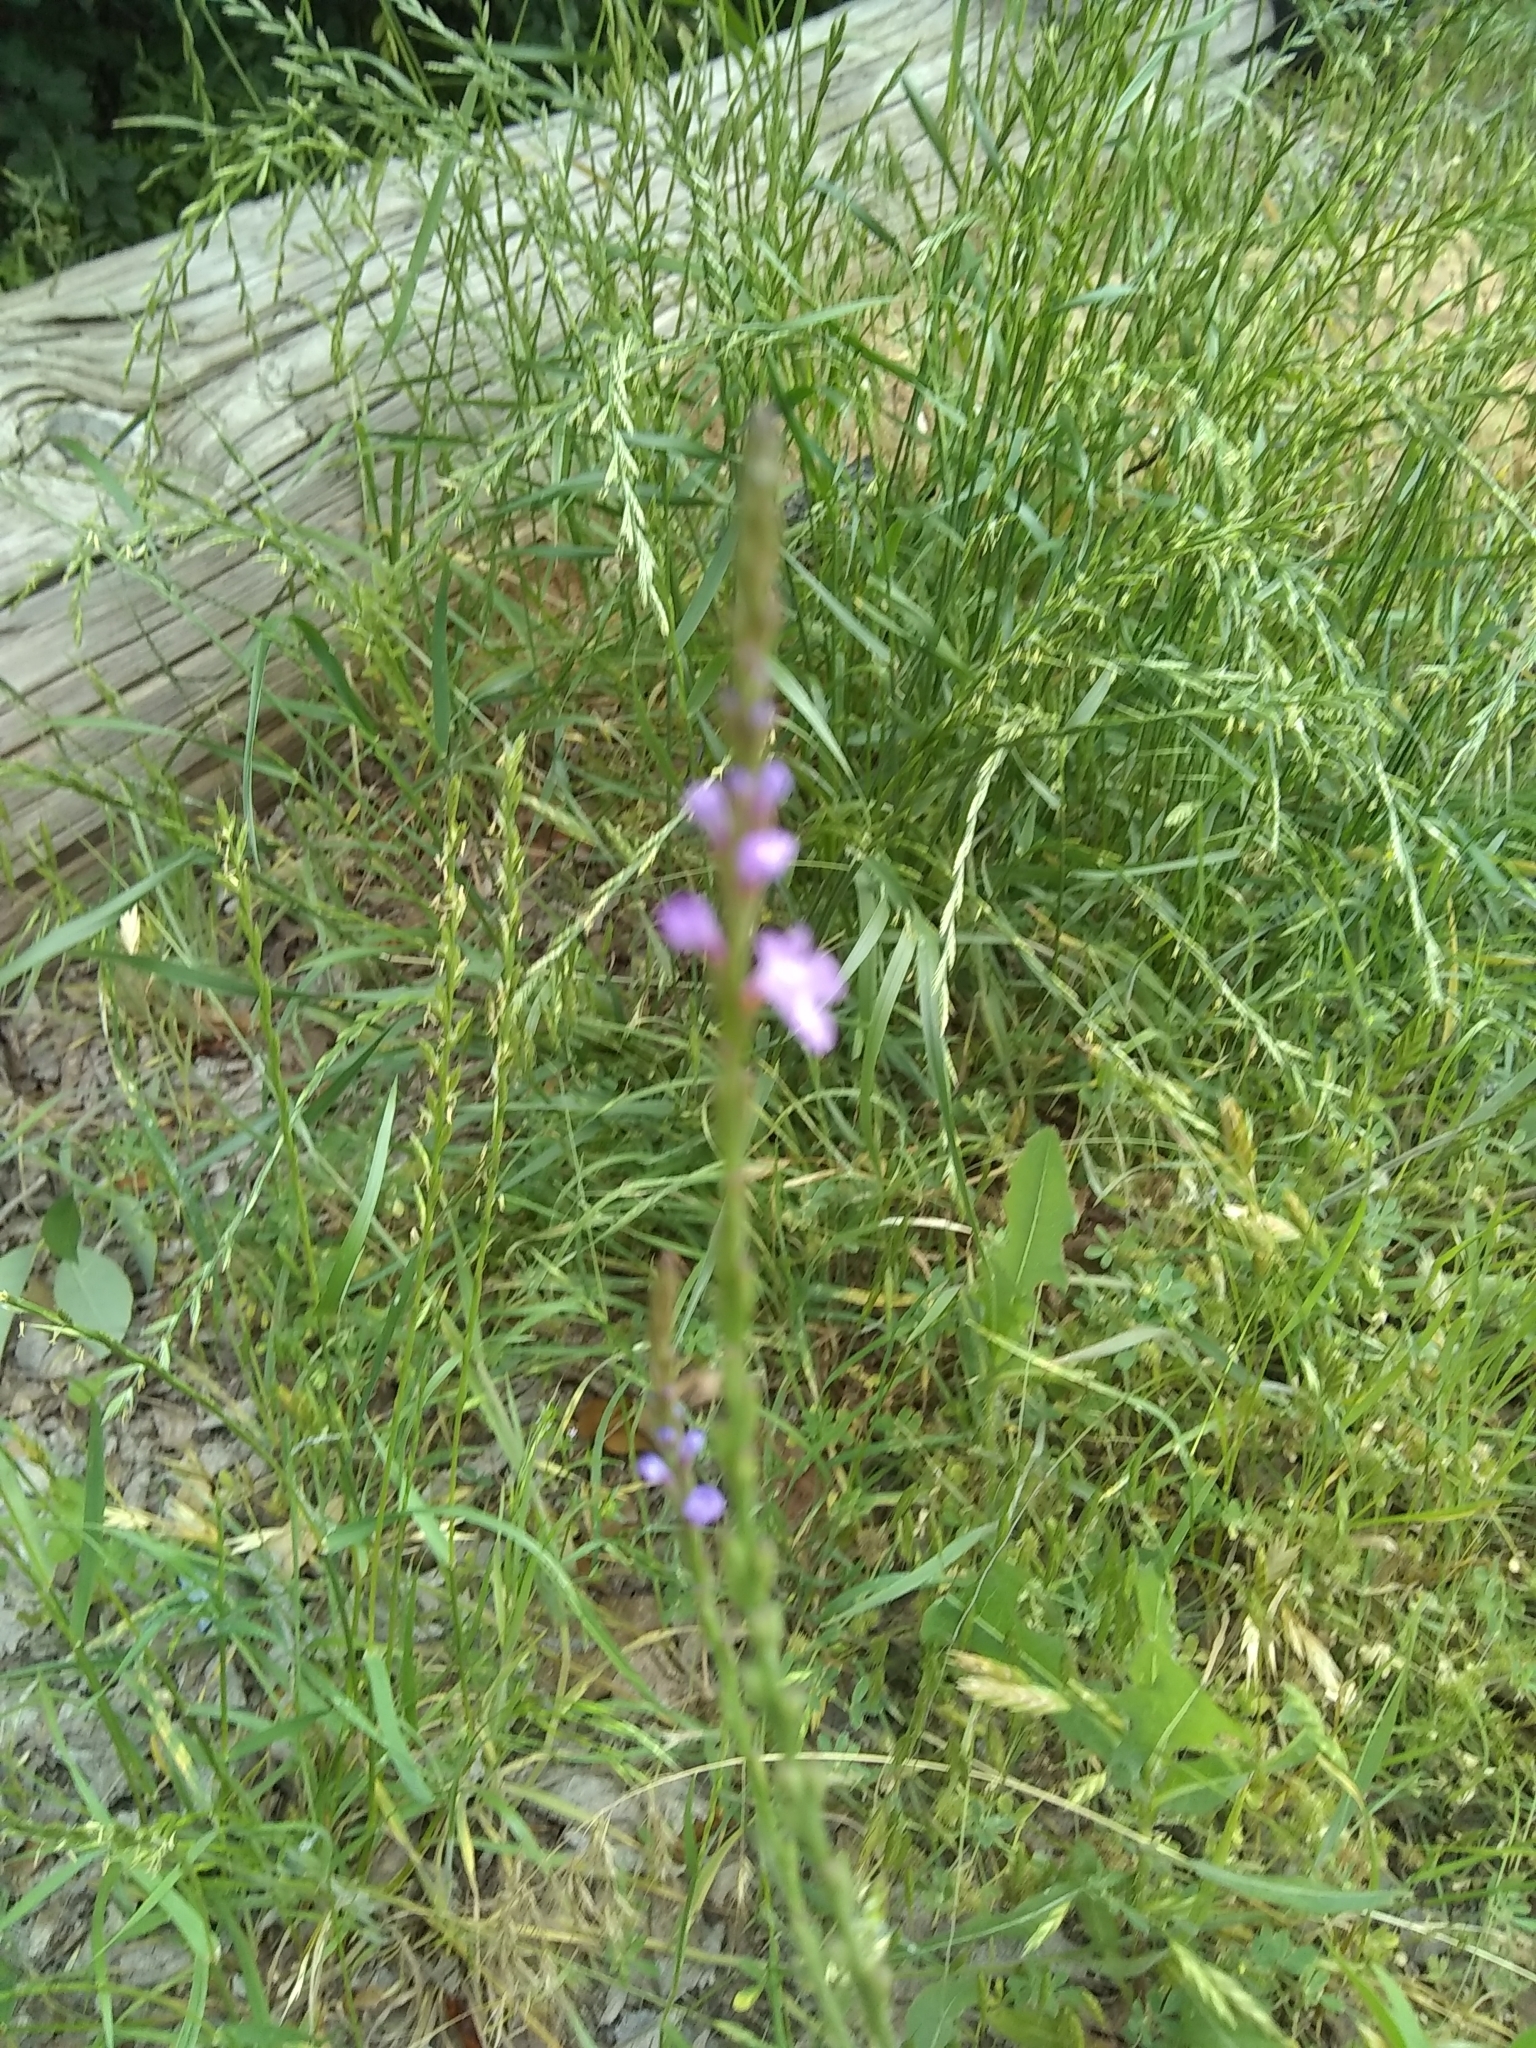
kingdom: Plantae
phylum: Tracheophyta
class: Magnoliopsida
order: Lamiales
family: Verbenaceae
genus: Verbena
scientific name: Verbena halei
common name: Texas vervain
